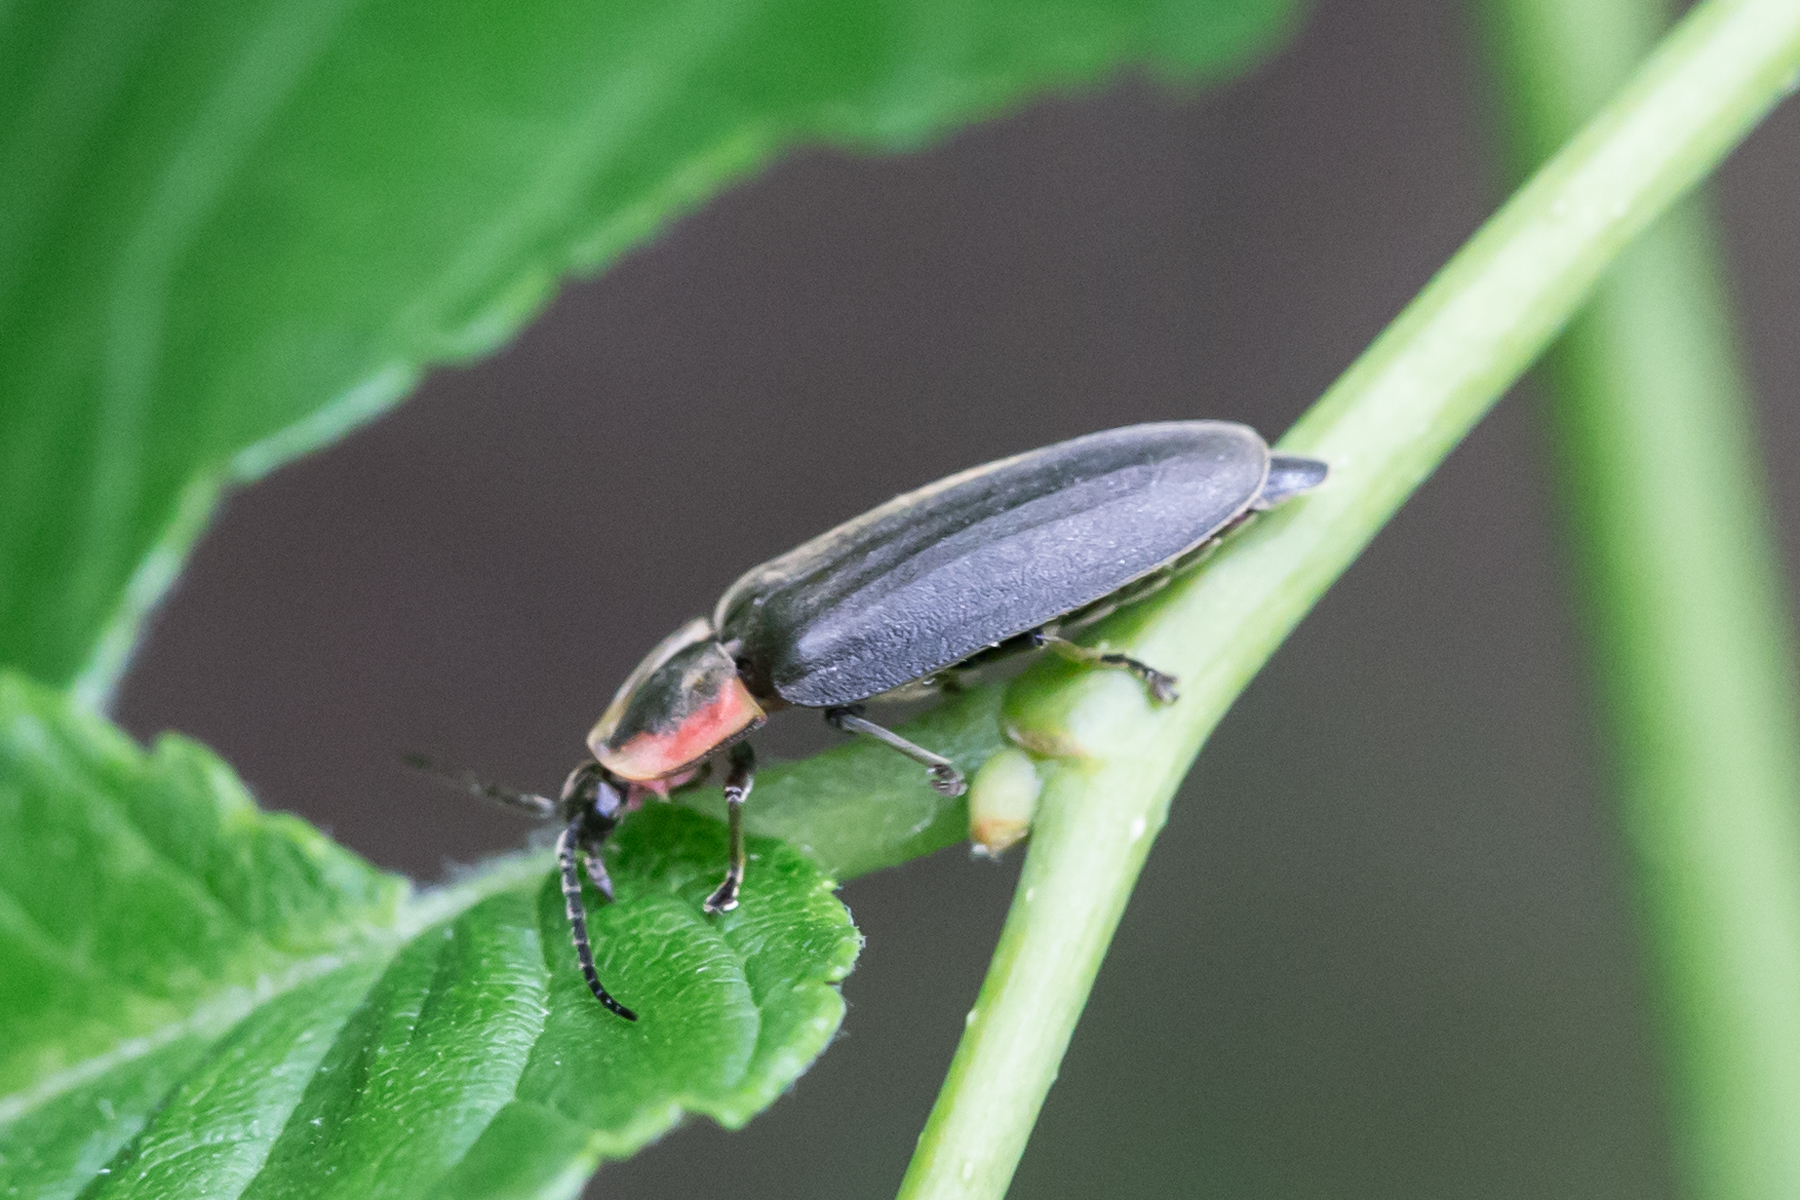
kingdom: Animalia
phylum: Arthropoda
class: Insecta
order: Coleoptera
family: Lampyridae
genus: Photinus
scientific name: Photinus corrusca
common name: Winter firefly
